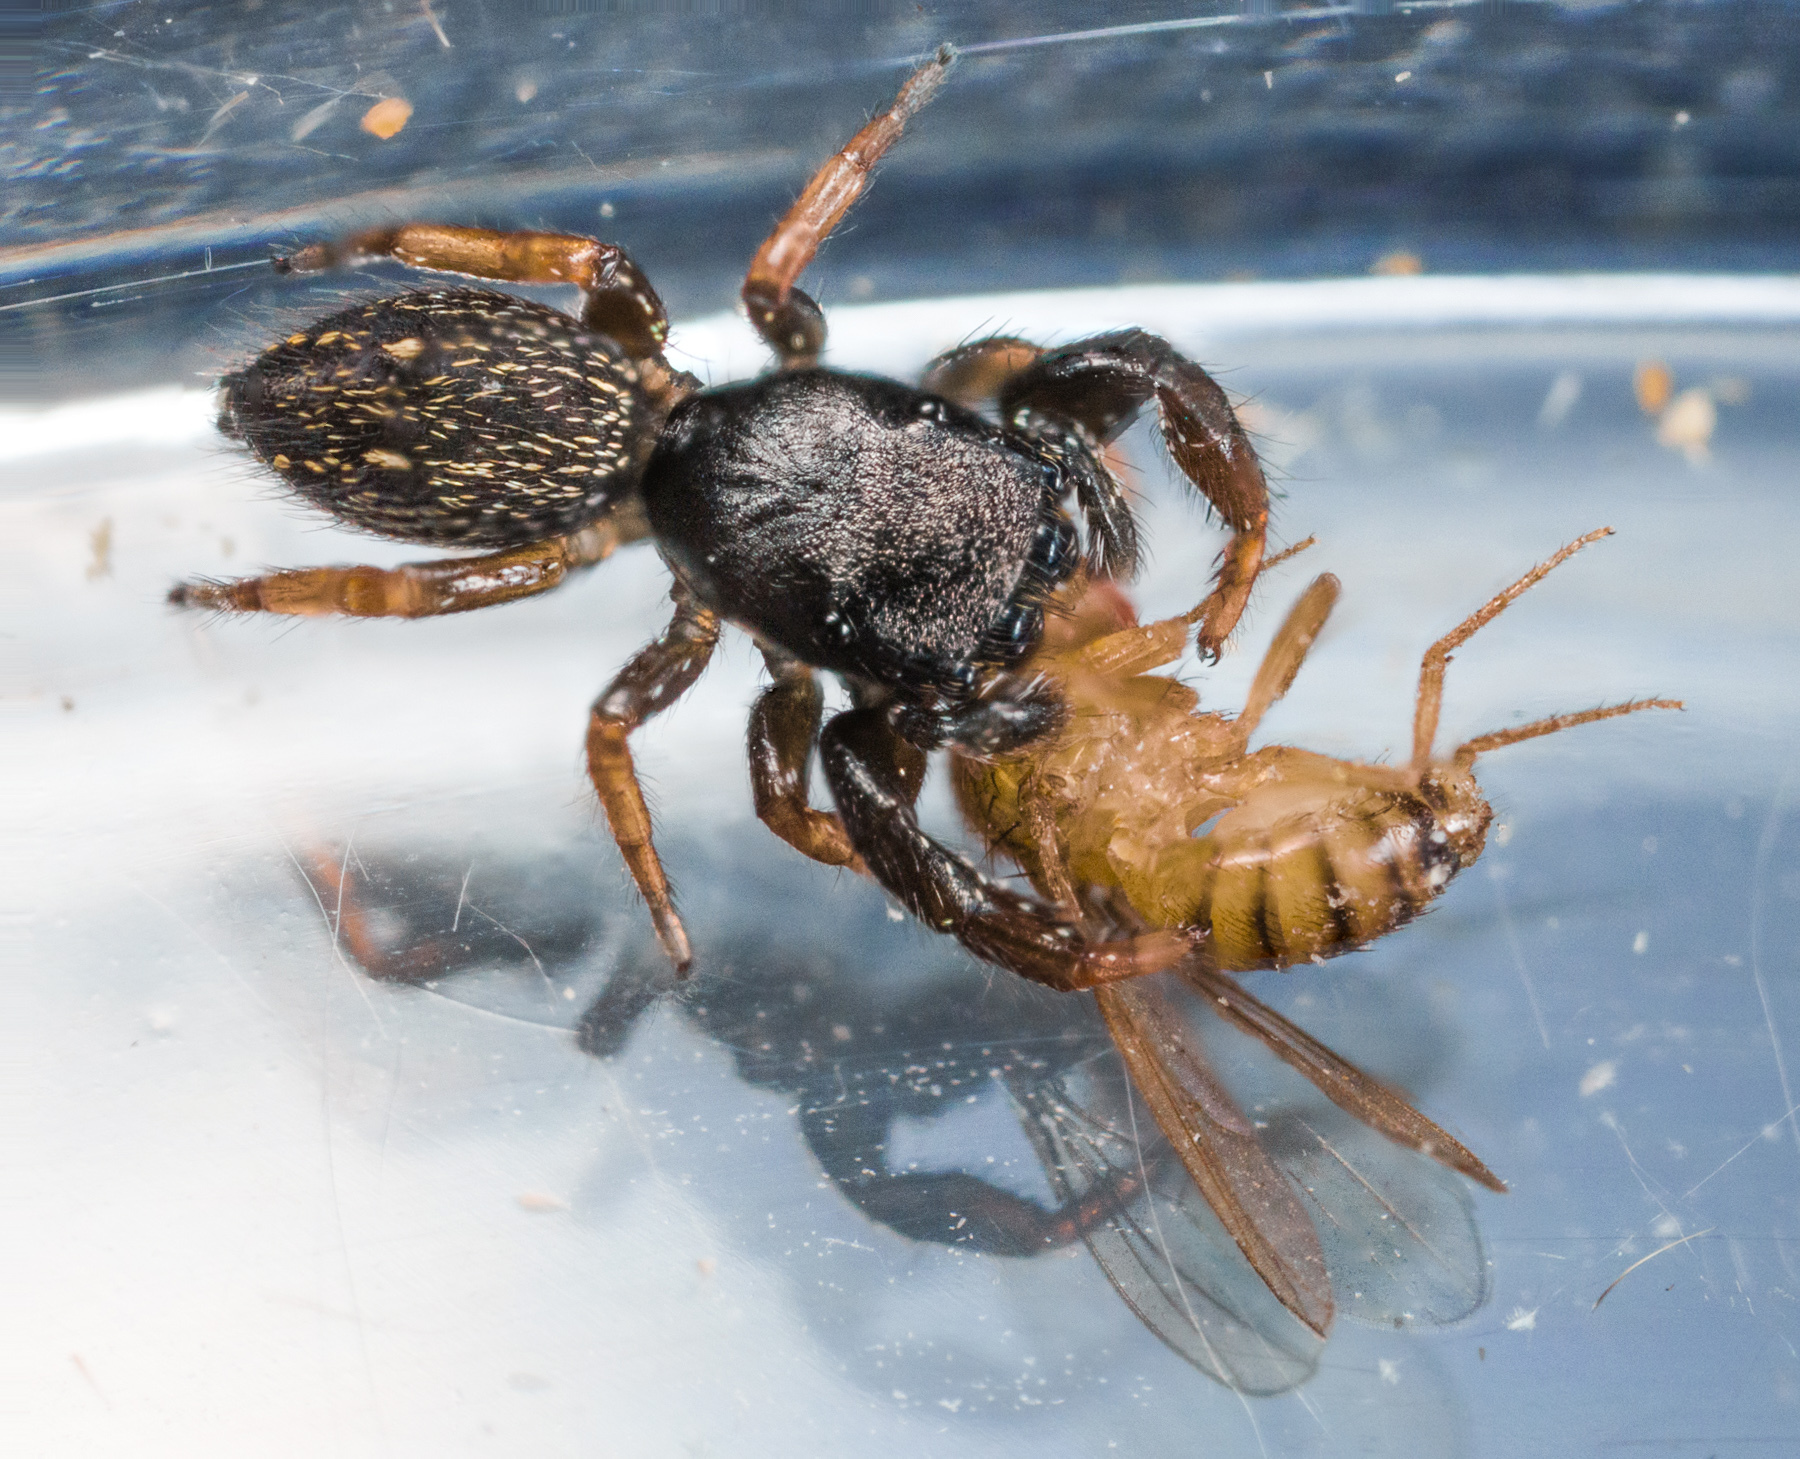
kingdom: Animalia
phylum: Arthropoda
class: Arachnida
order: Araneae
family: Salticidae
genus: Metacyrba
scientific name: Metacyrba taeniola
